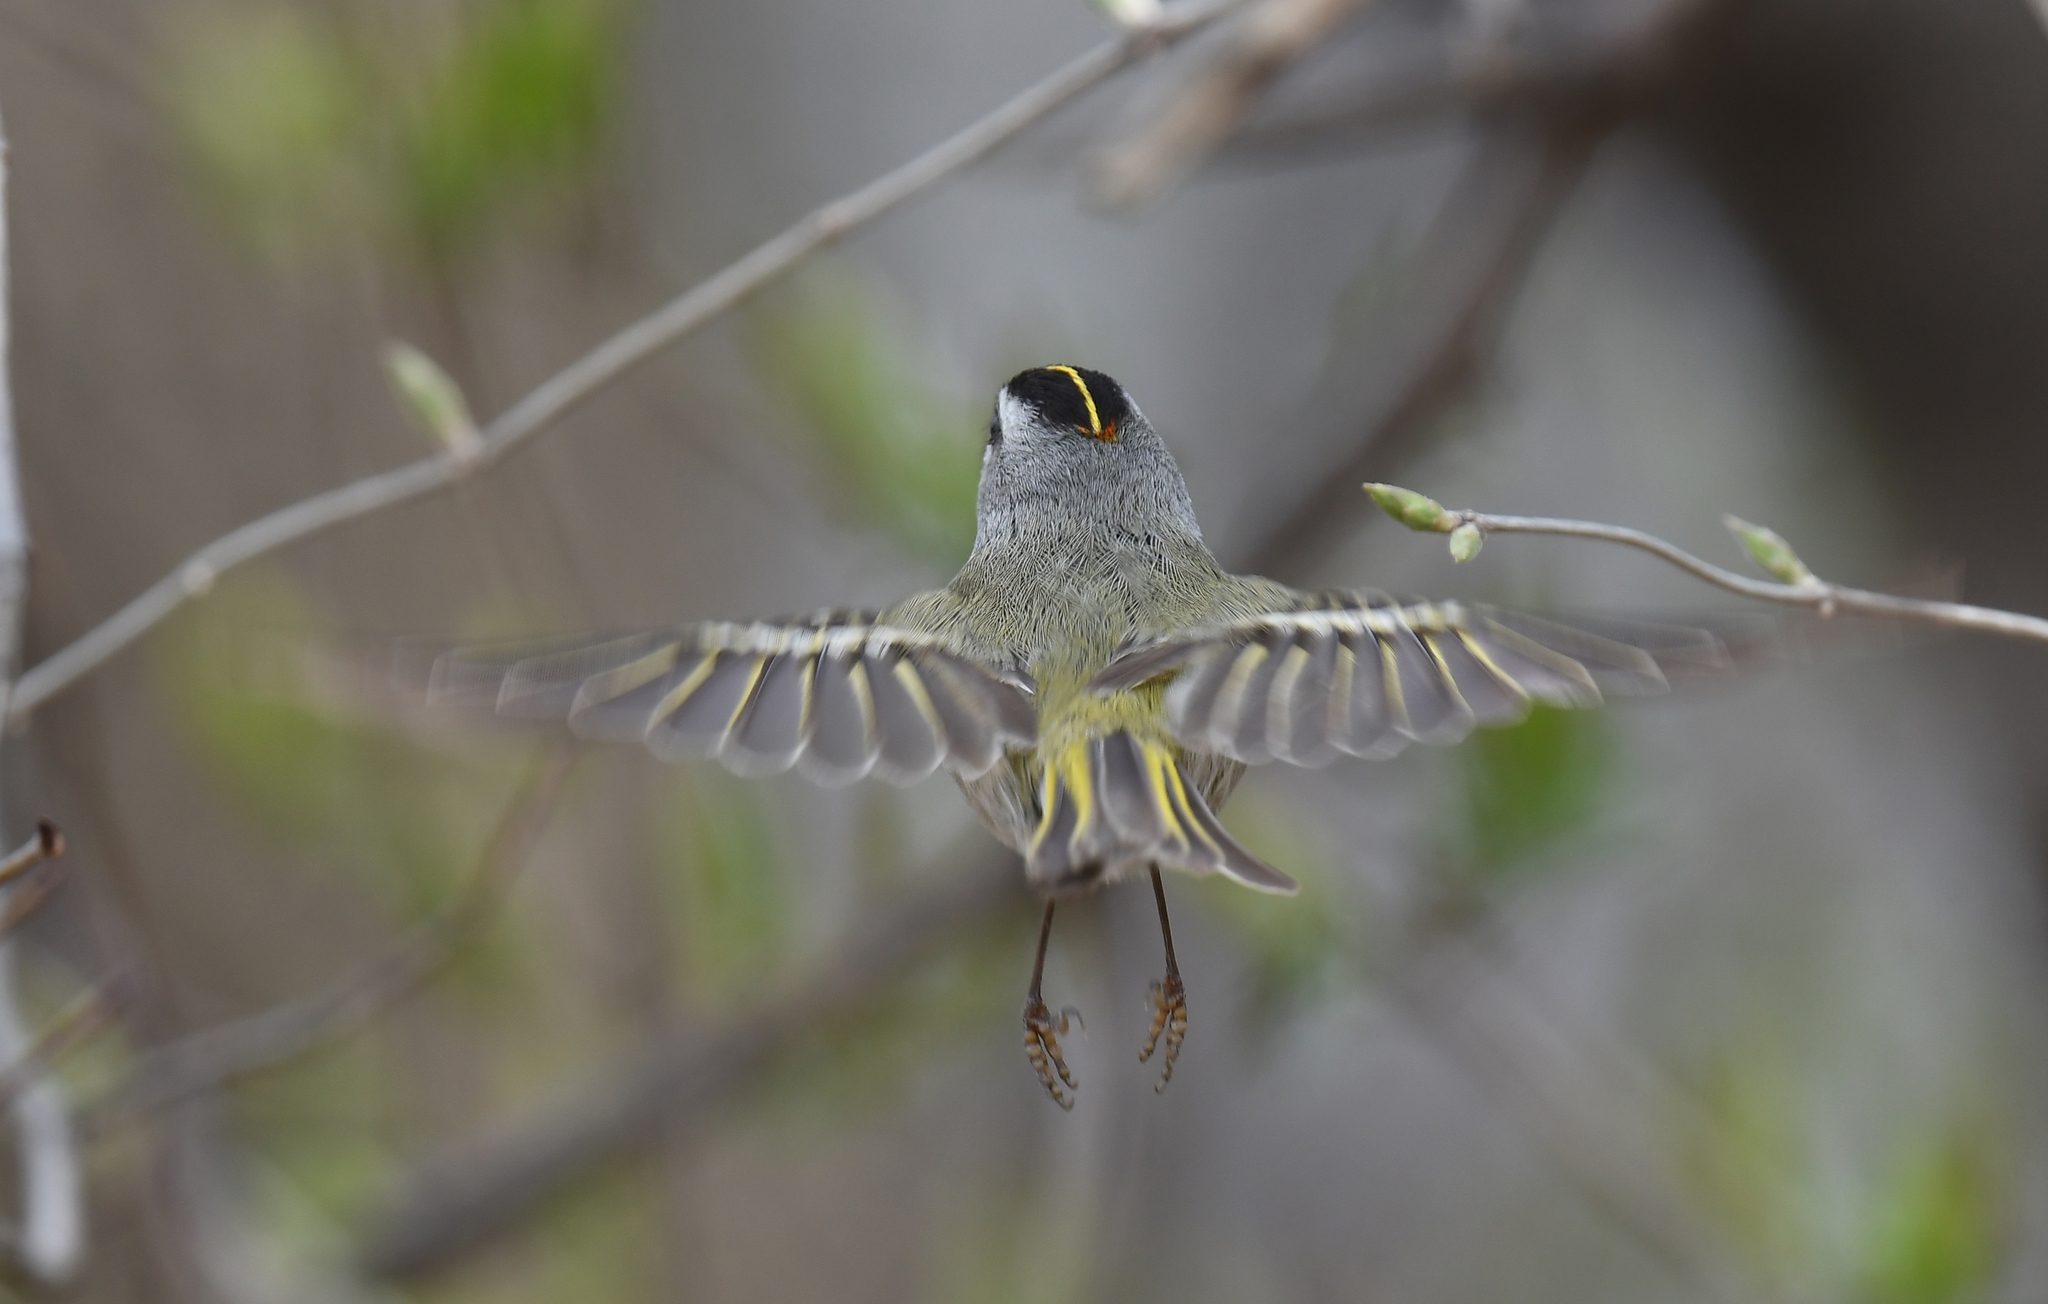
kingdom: Animalia
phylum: Chordata
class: Aves
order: Passeriformes
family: Regulidae
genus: Regulus
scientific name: Regulus satrapa
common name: Golden-crowned kinglet
